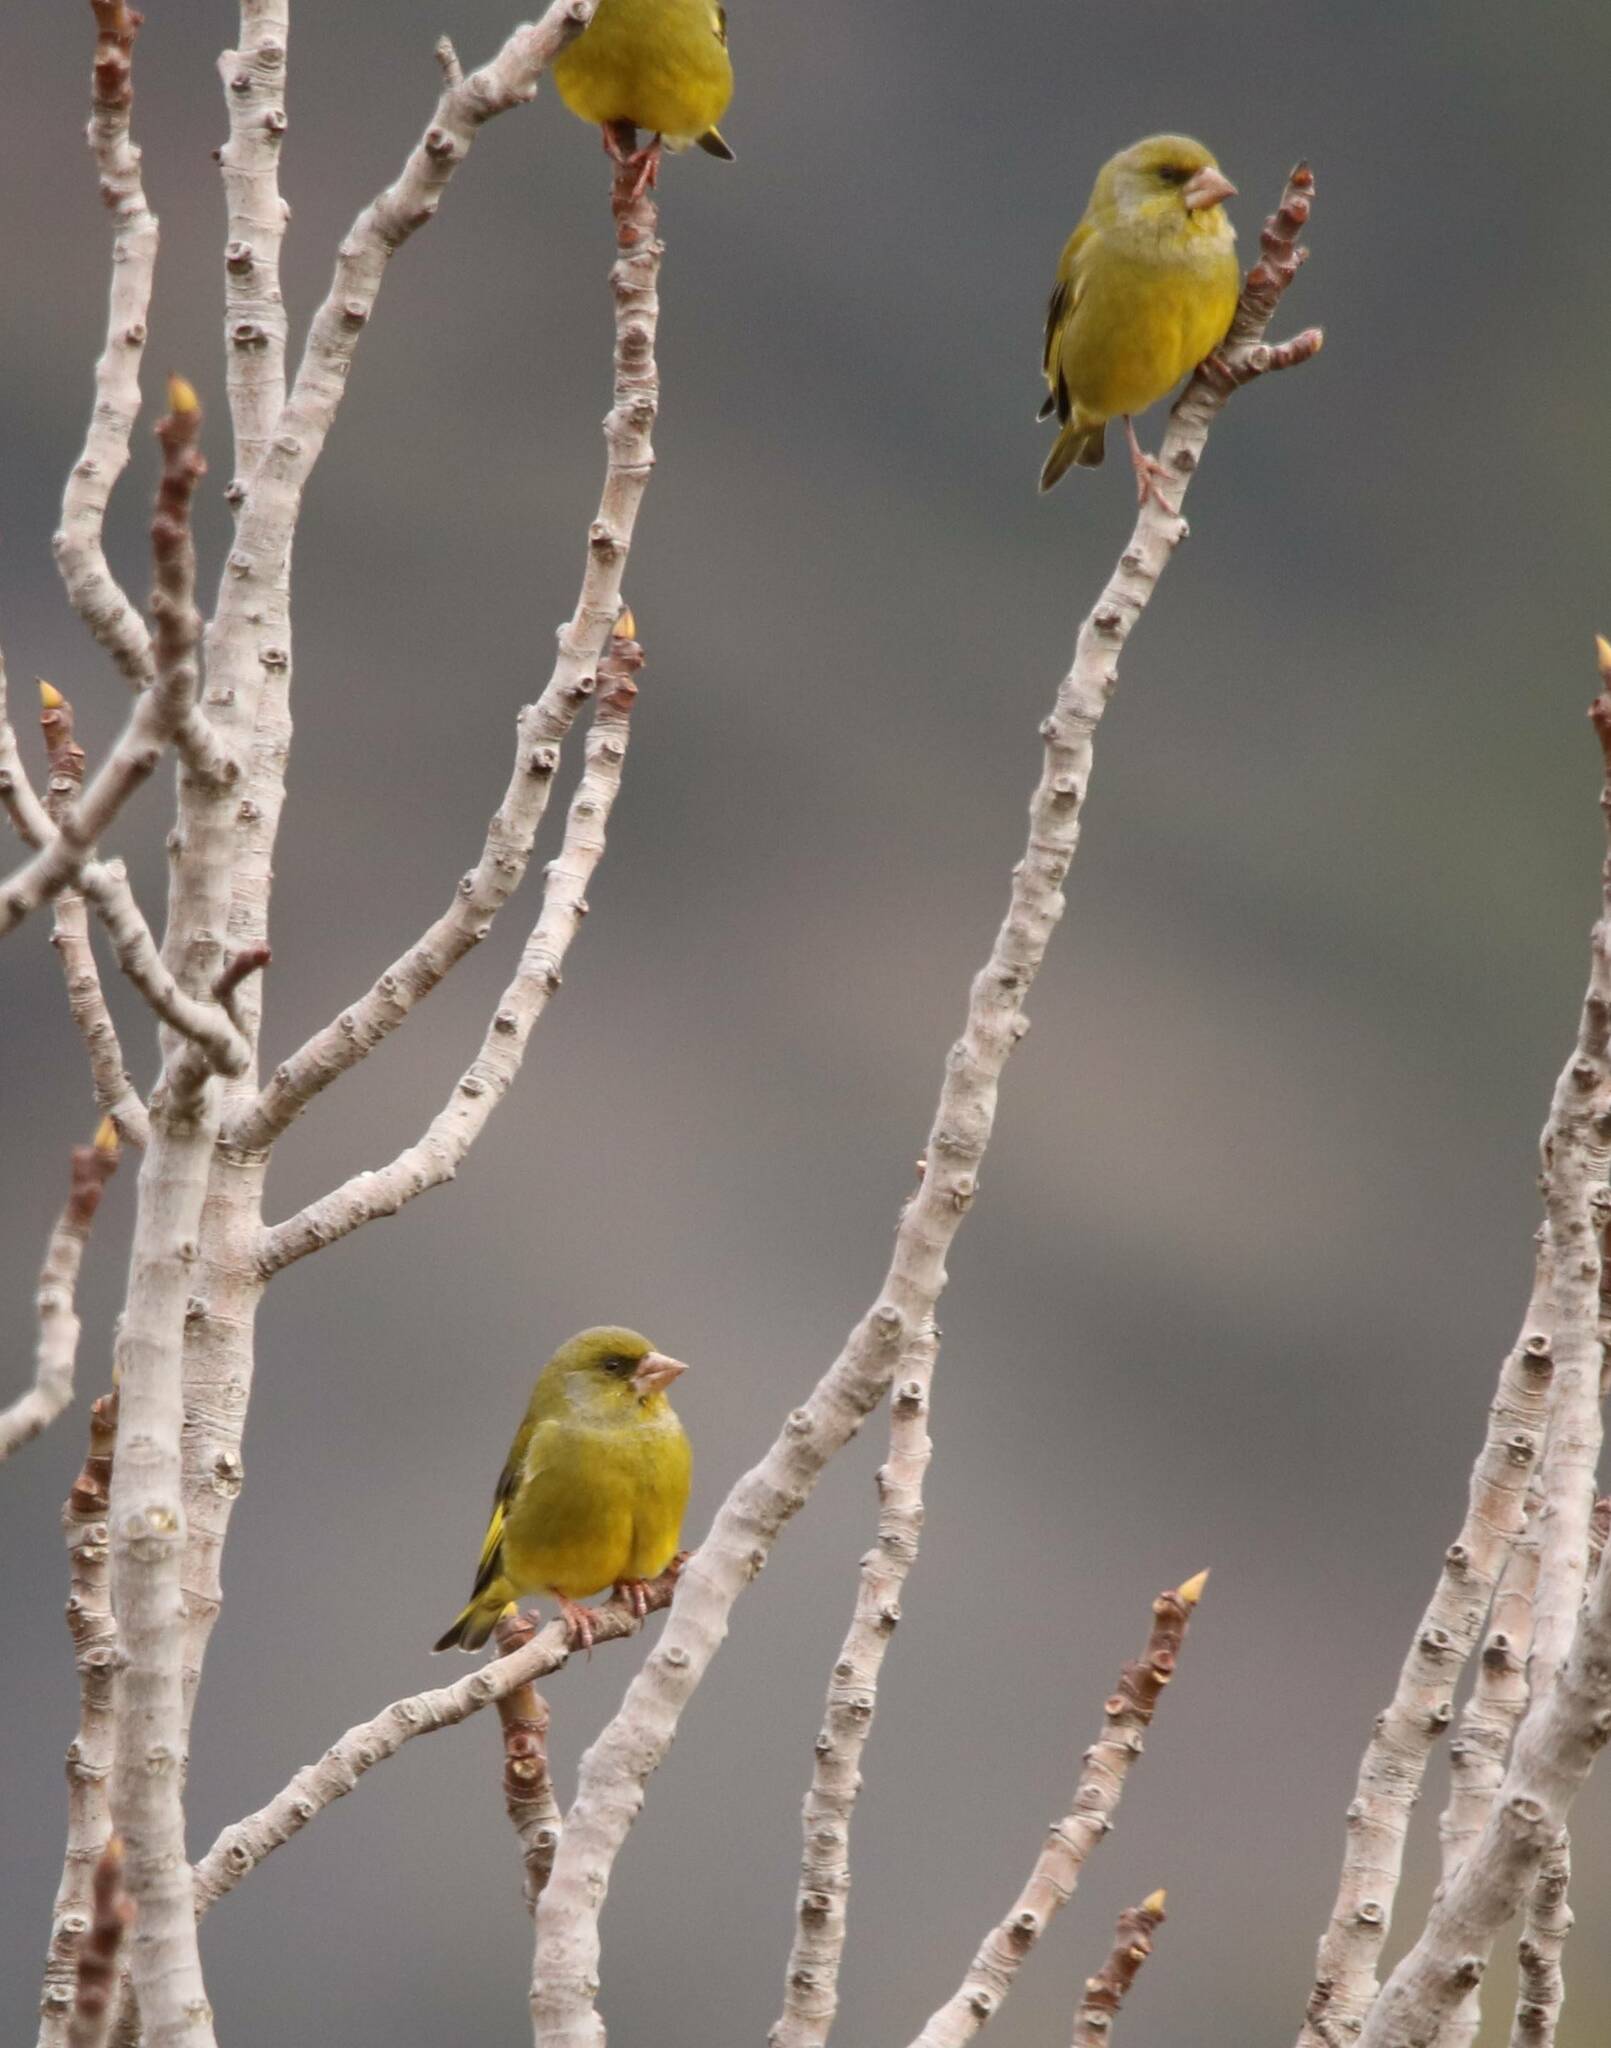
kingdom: Plantae
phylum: Tracheophyta
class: Liliopsida
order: Poales
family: Poaceae
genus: Chloris
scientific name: Chloris chloris
